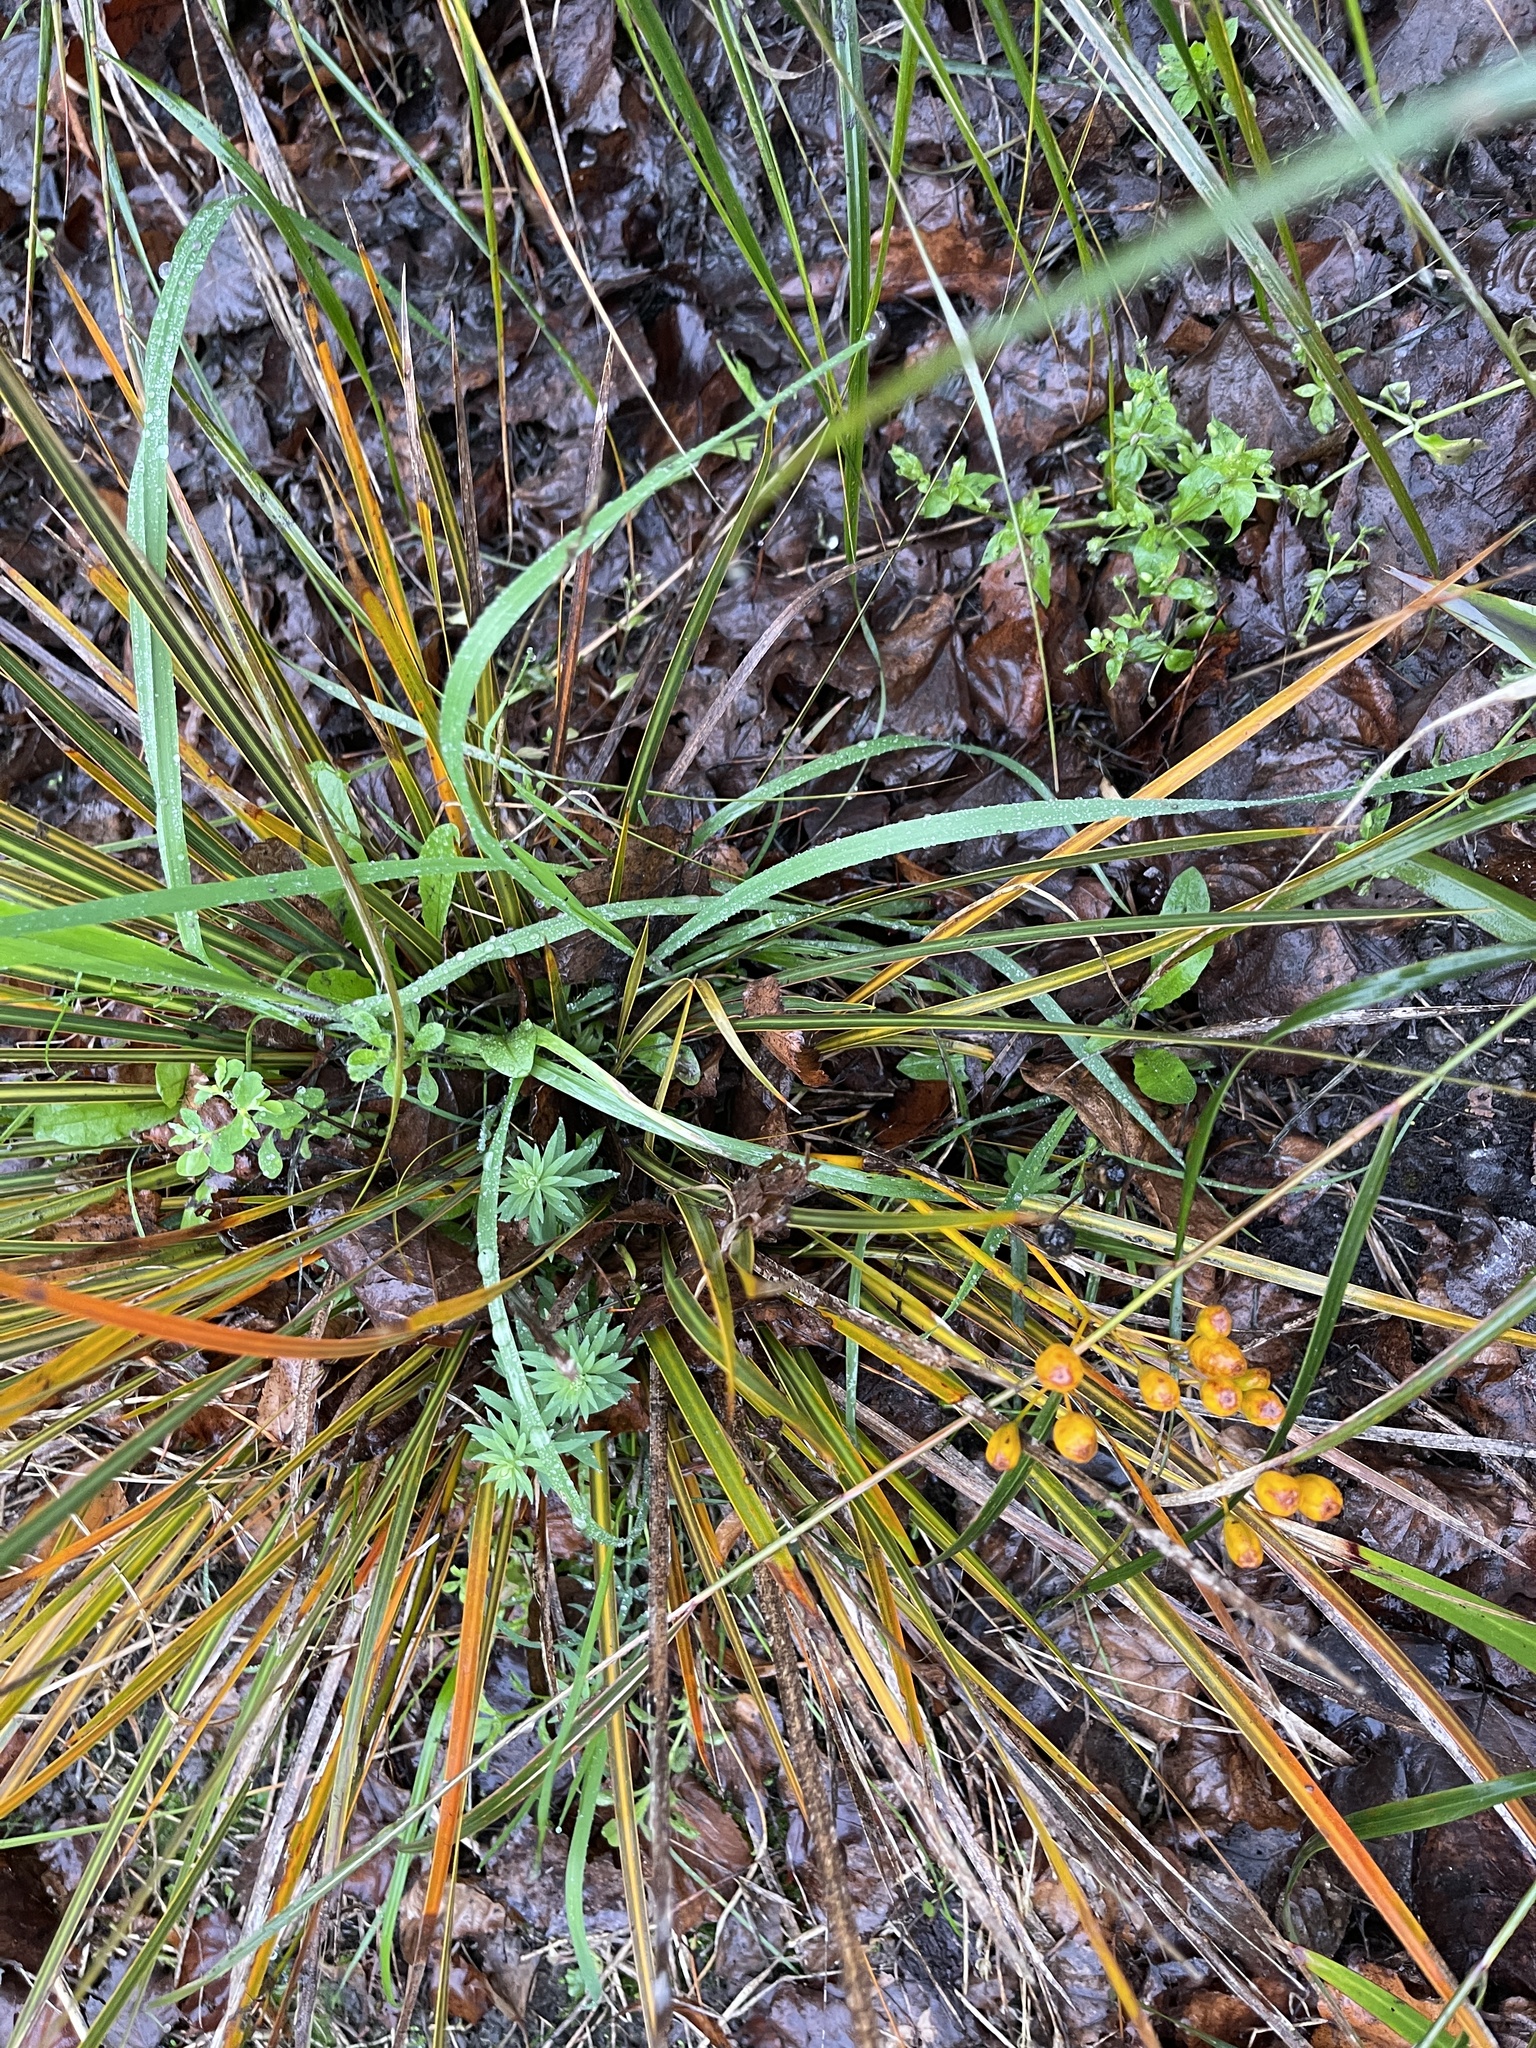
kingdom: Plantae
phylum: Tracheophyta
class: Liliopsida
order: Asparagales
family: Iridaceae
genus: Libertia
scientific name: Libertia ixioides
